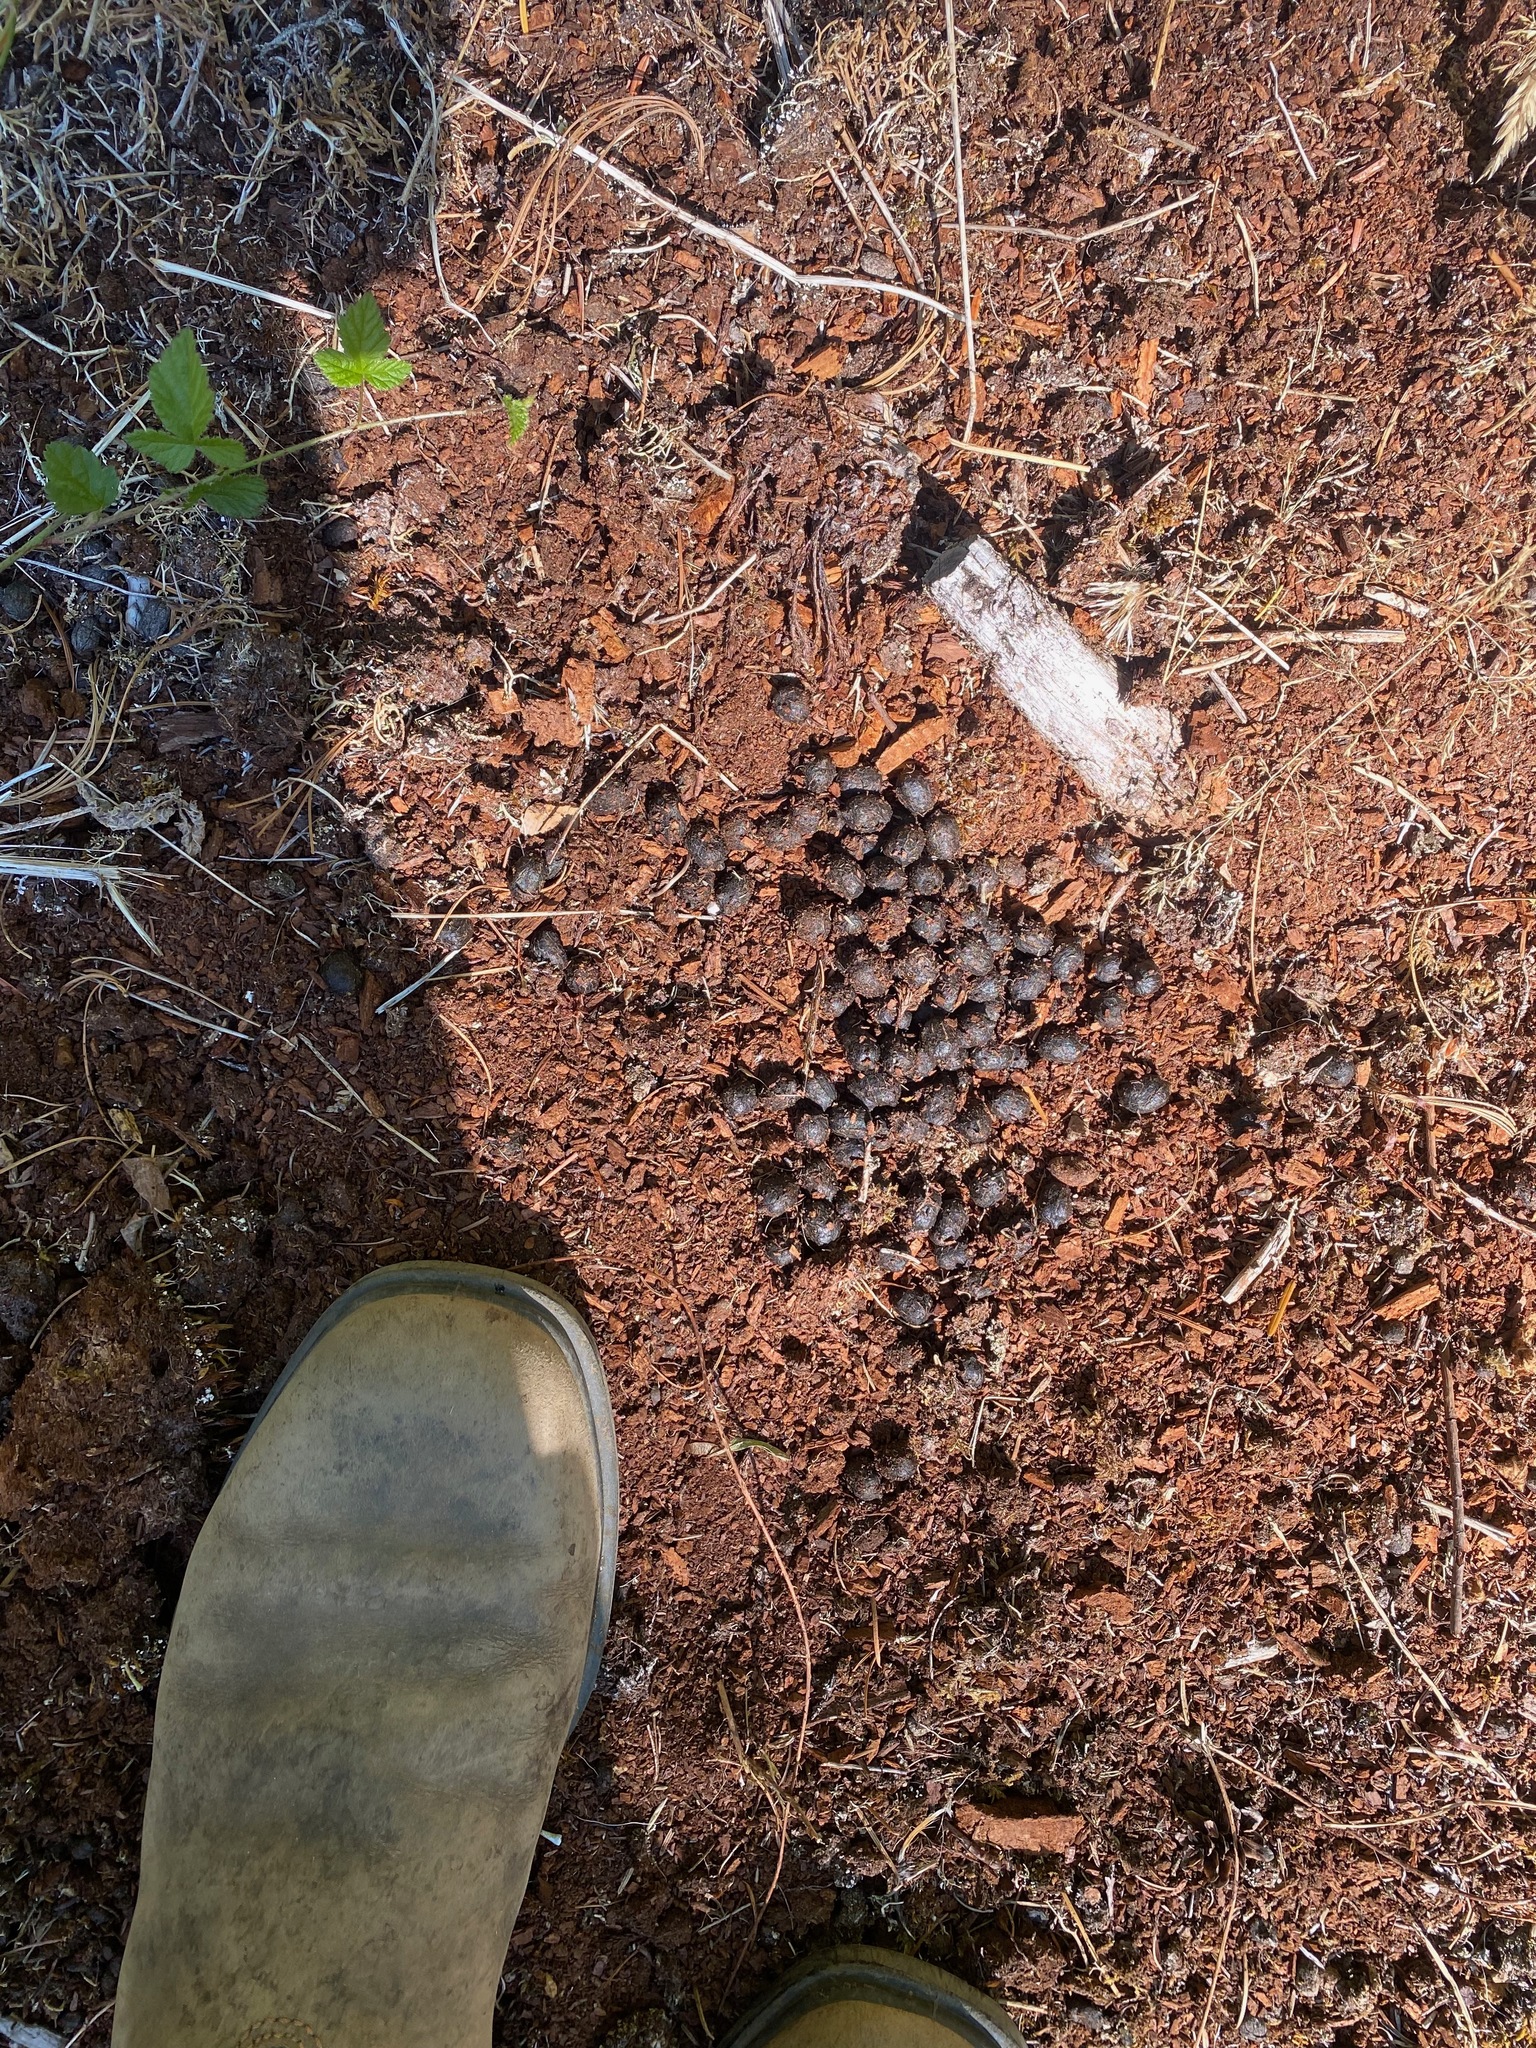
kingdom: Animalia
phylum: Chordata
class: Mammalia
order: Artiodactyla
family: Cervidae
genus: Odocoileus
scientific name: Odocoileus hemionus
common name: Mule deer
